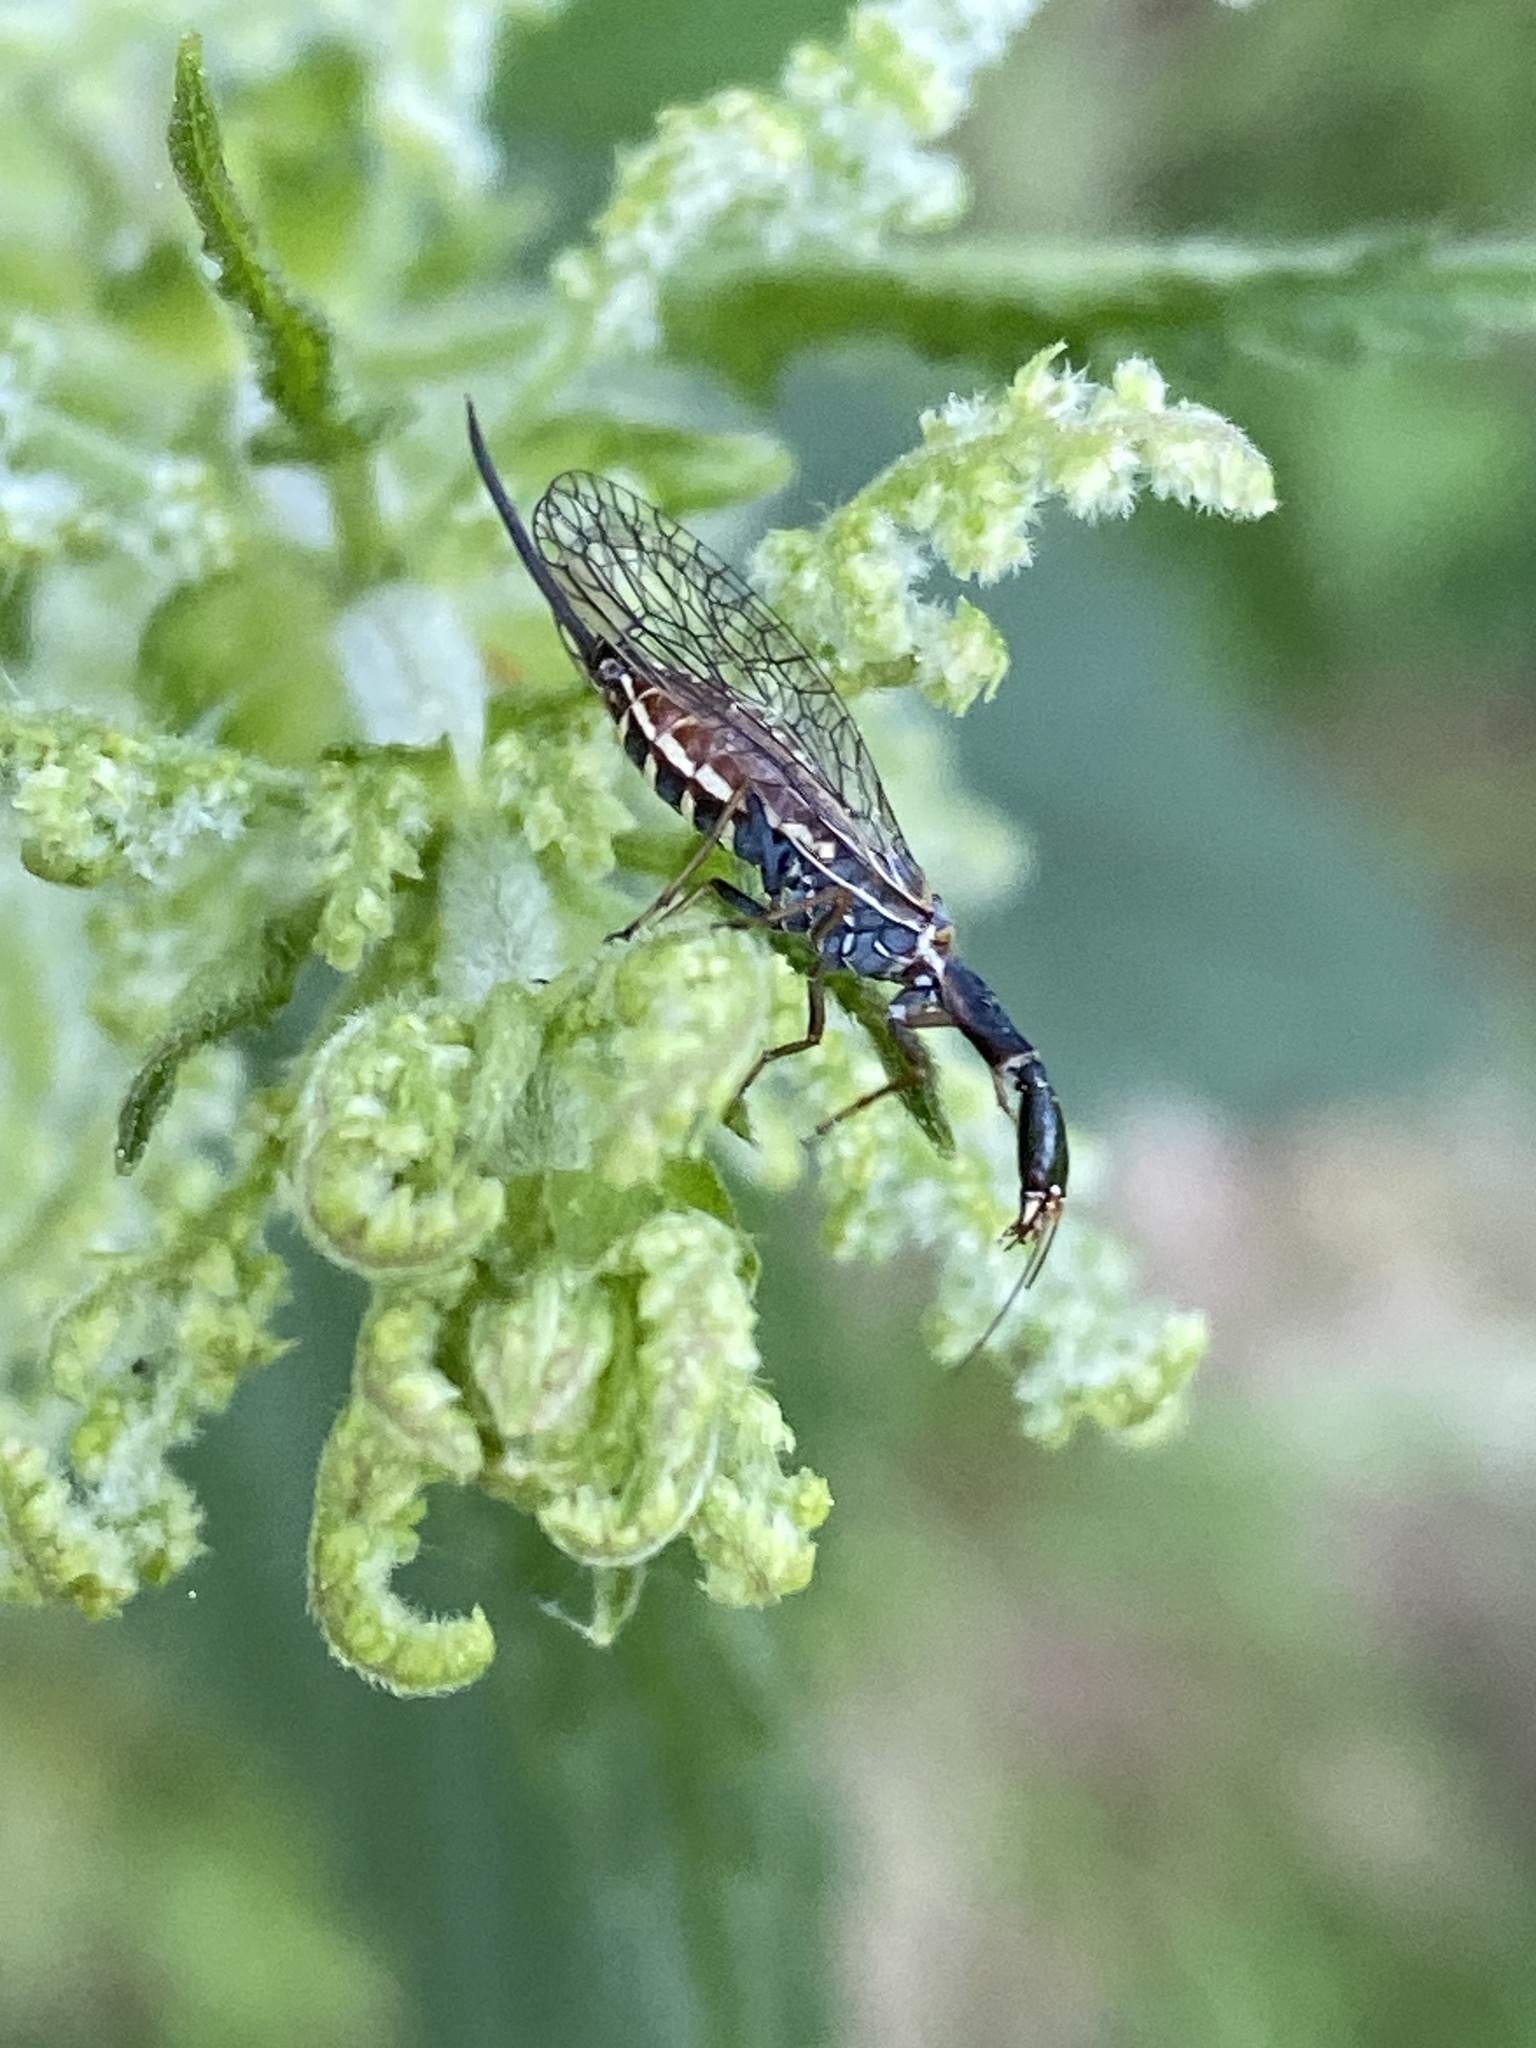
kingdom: Animalia
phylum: Arthropoda
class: Insecta
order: Raphidioptera
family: Raphidiidae
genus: Xanthostigma
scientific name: Xanthostigma xanthostigma
